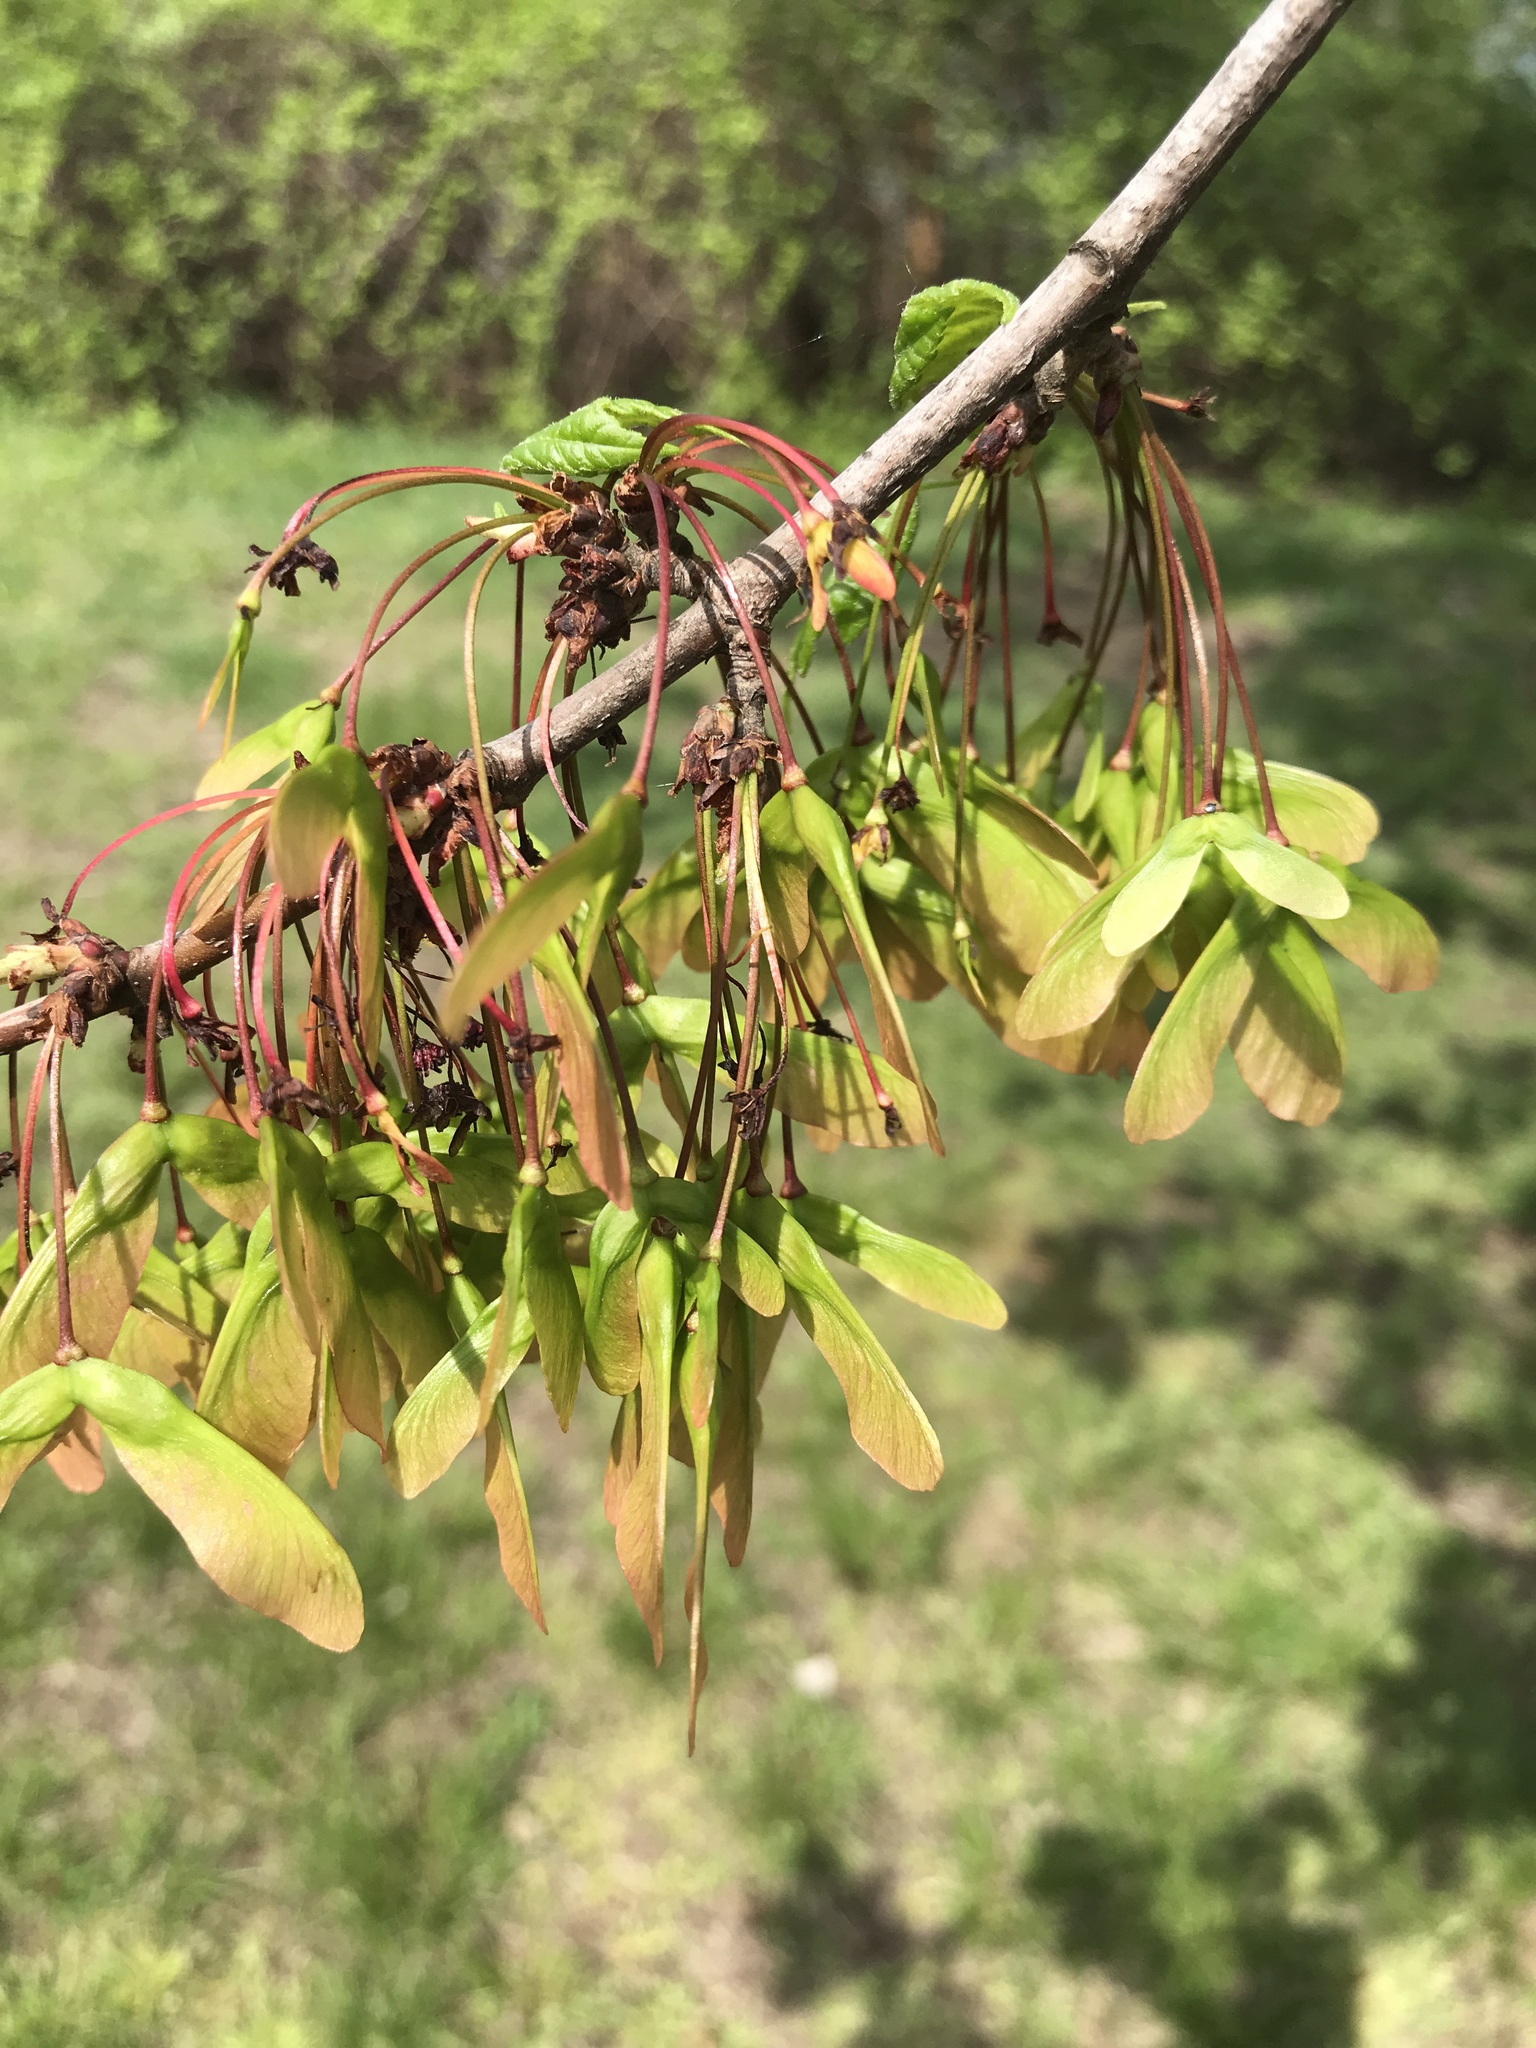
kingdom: Plantae
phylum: Tracheophyta
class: Magnoliopsida
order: Sapindales
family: Sapindaceae
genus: Acer
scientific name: Acer rubrum
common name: Red maple
